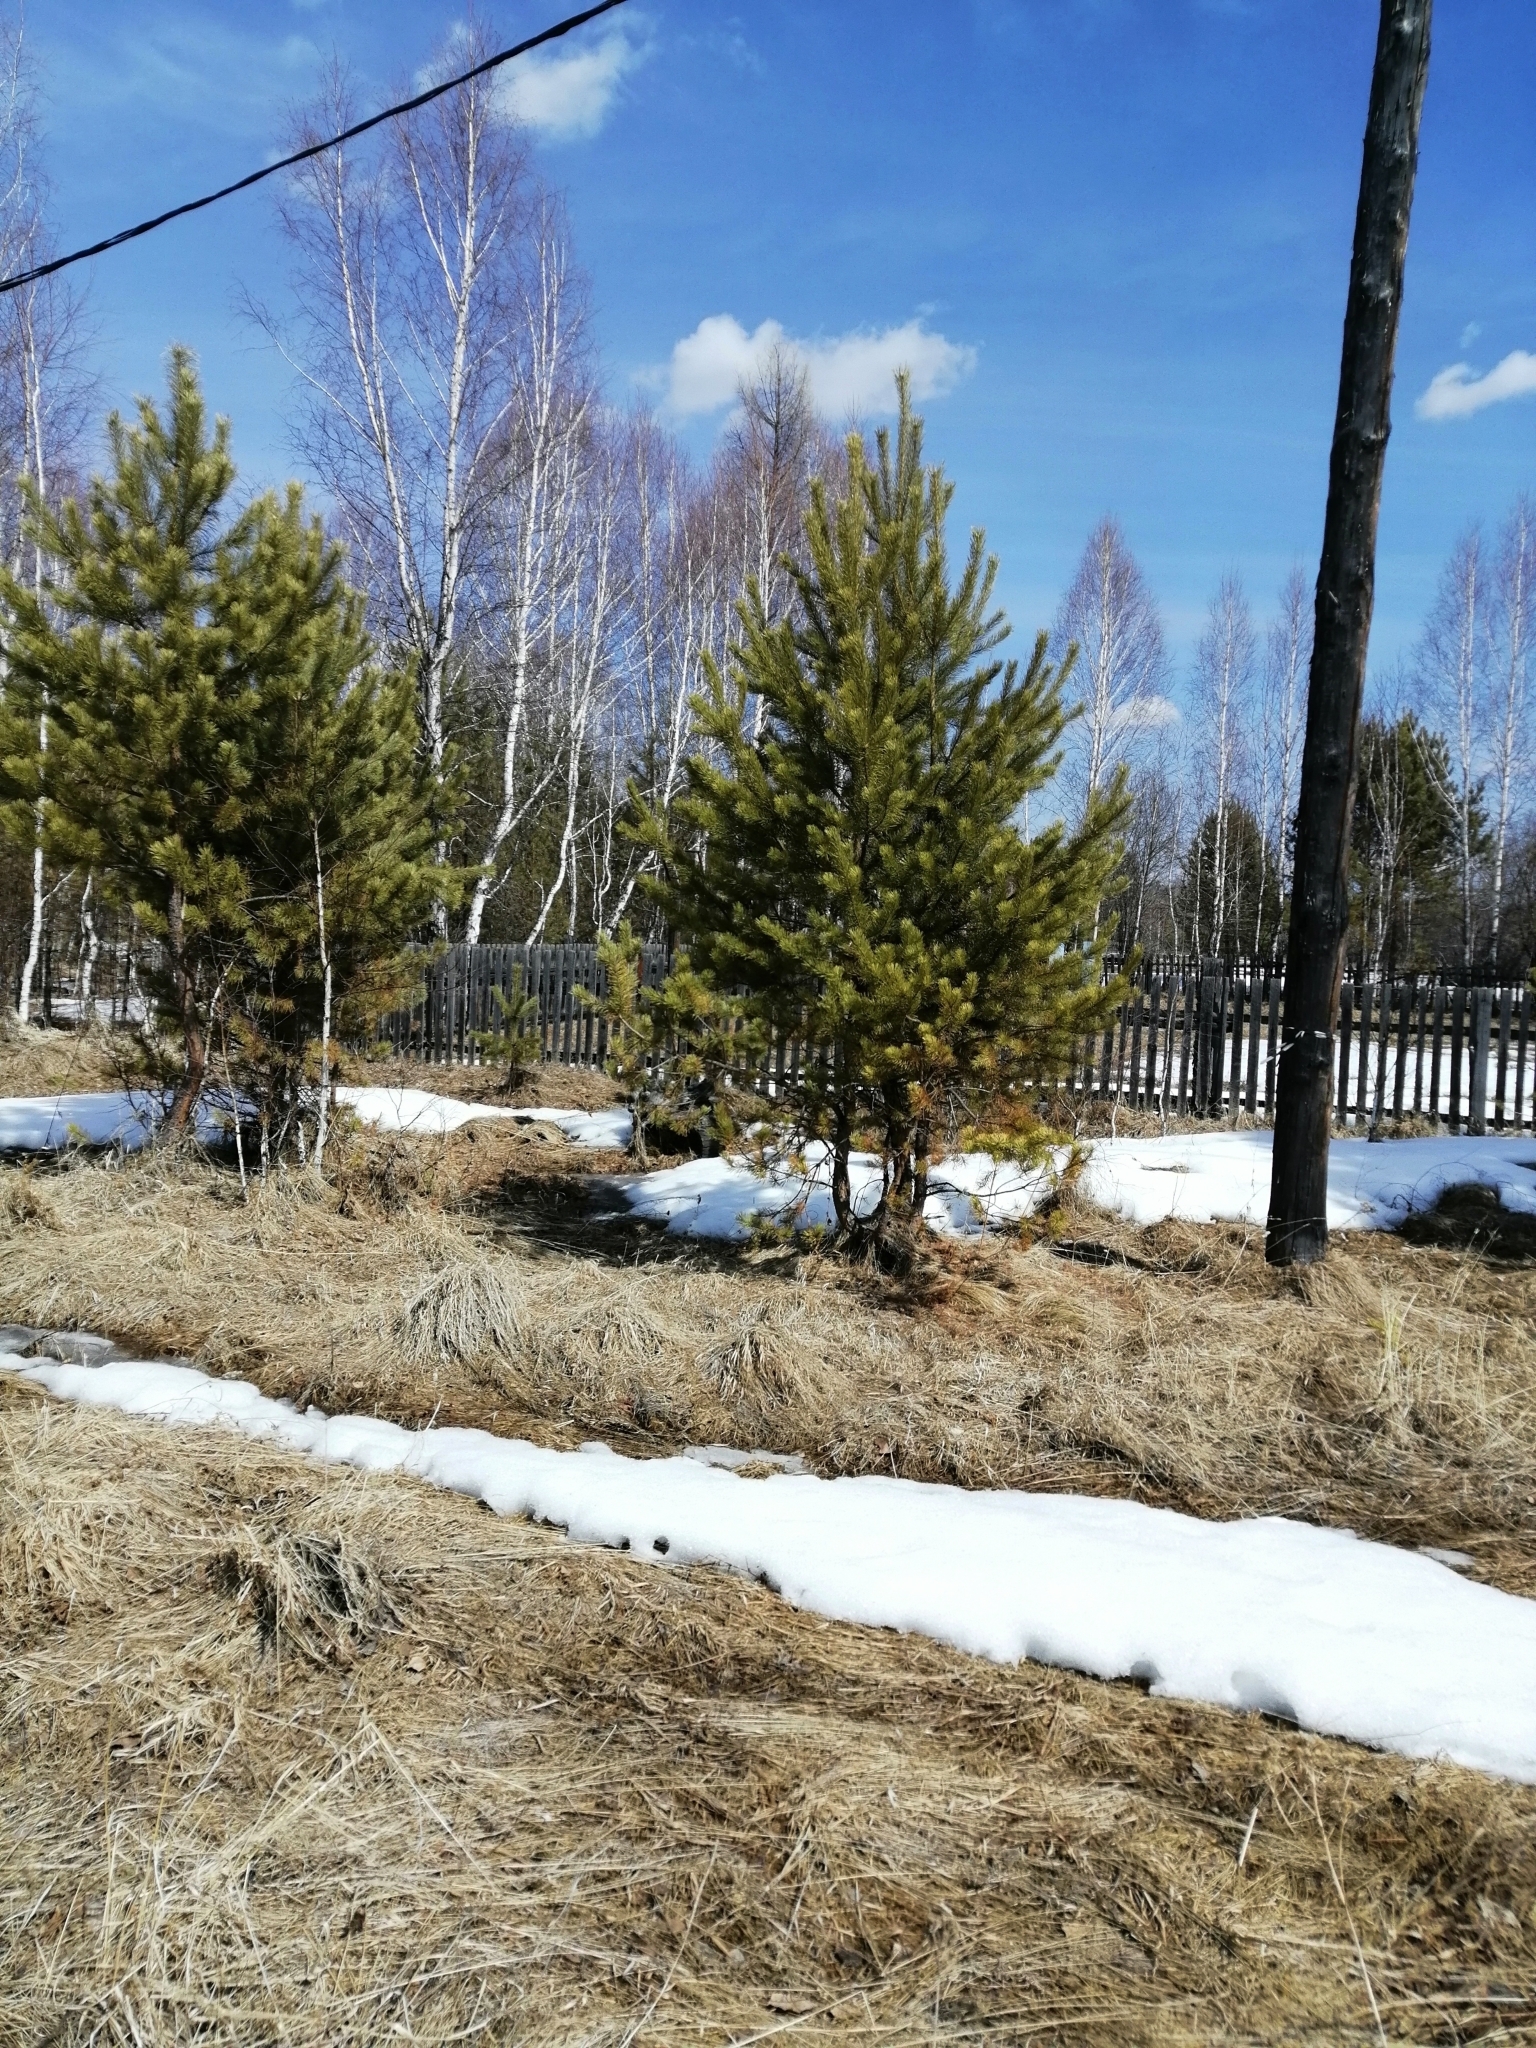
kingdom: Plantae
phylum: Tracheophyta
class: Pinopsida
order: Pinales
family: Pinaceae
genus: Pinus
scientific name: Pinus sylvestris
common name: Scots pine
